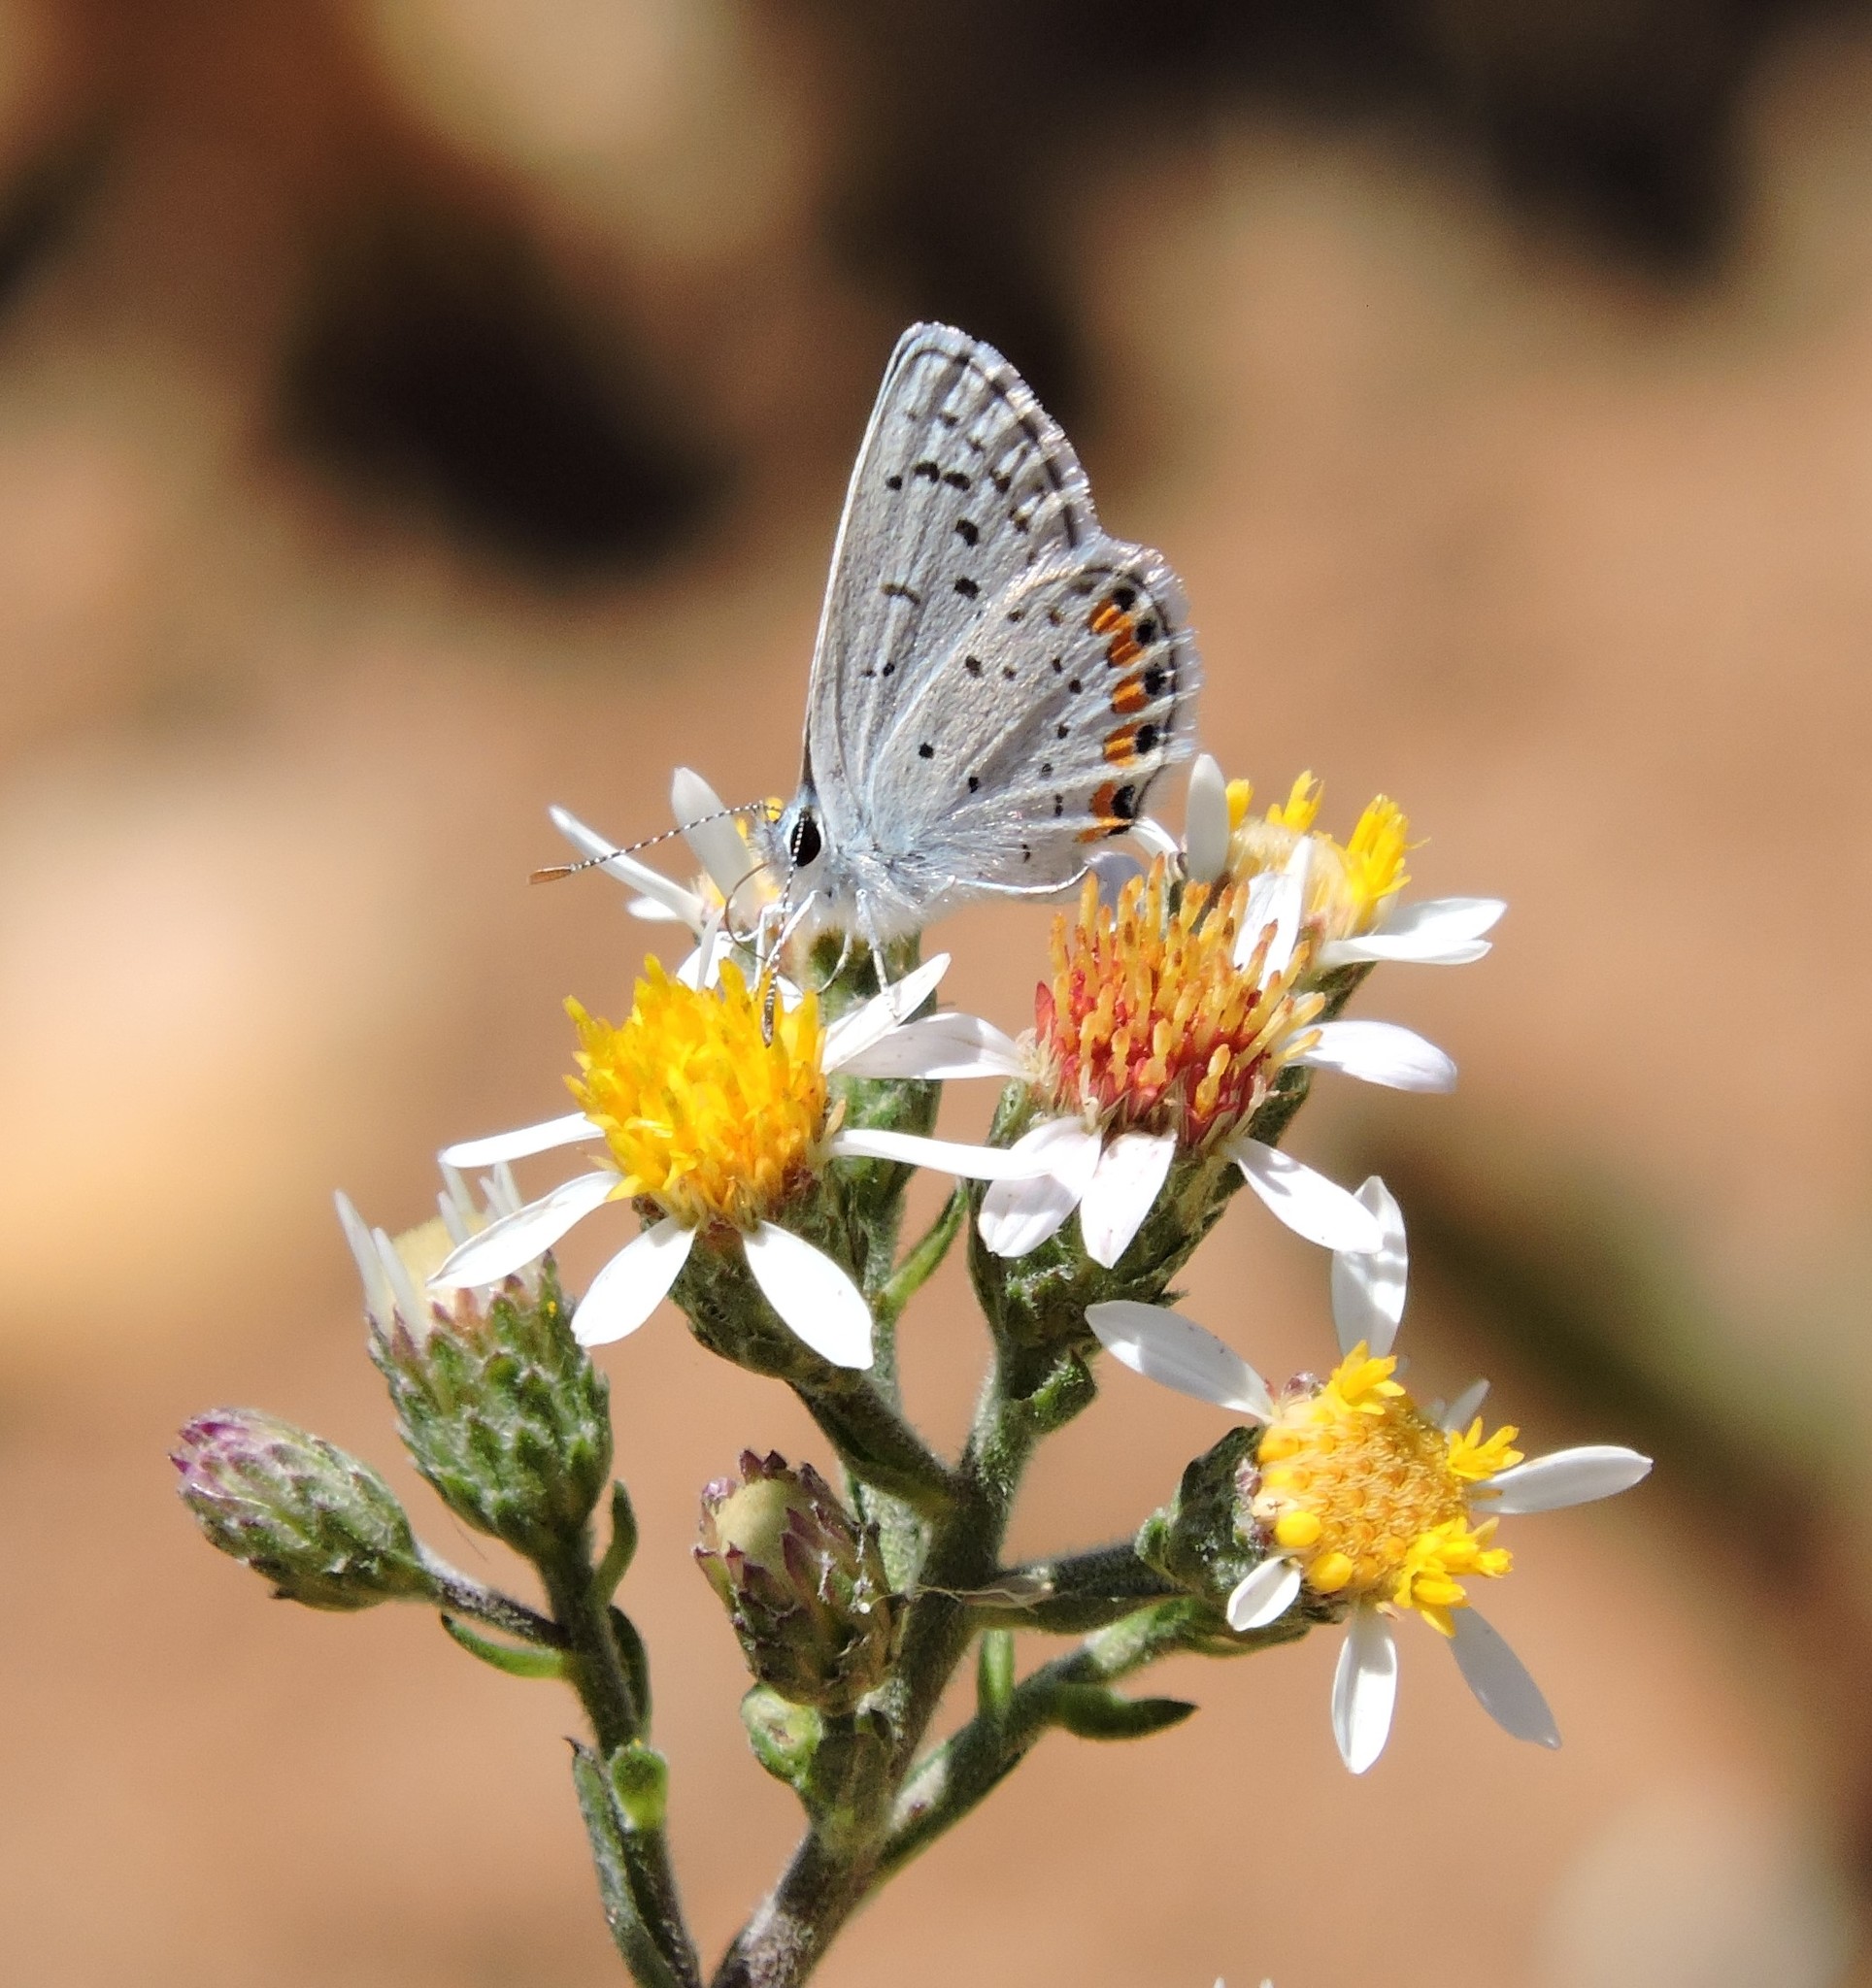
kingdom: Animalia
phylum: Arthropoda
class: Insecta
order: Lepidoptera
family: Lycaenidae
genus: Icaricia
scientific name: Icaricia acmon
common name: Acmon blue
